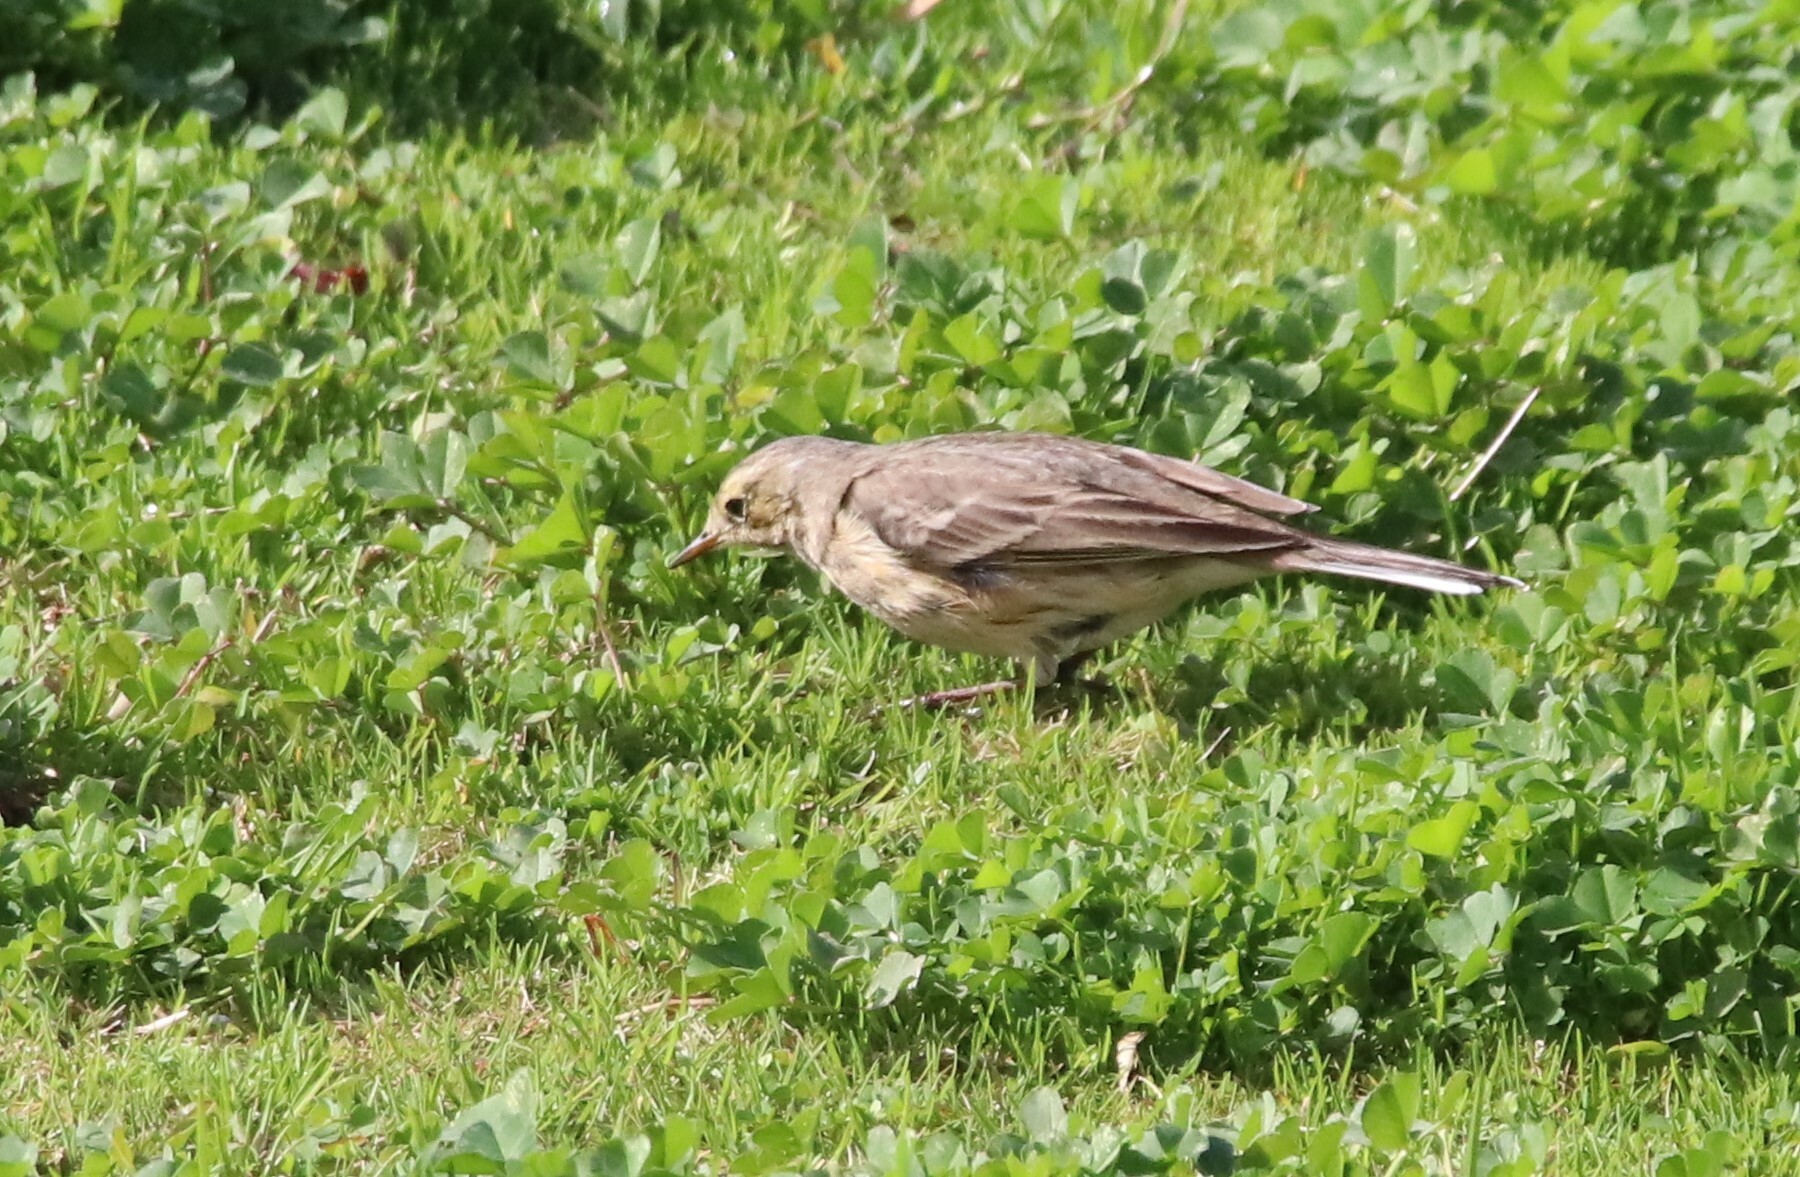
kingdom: Animalia
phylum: Chordata
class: Aves
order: Passeriformes
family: Motacillidae
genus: Anthus
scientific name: Anthus rubescens
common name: Buff-bellied pipit
